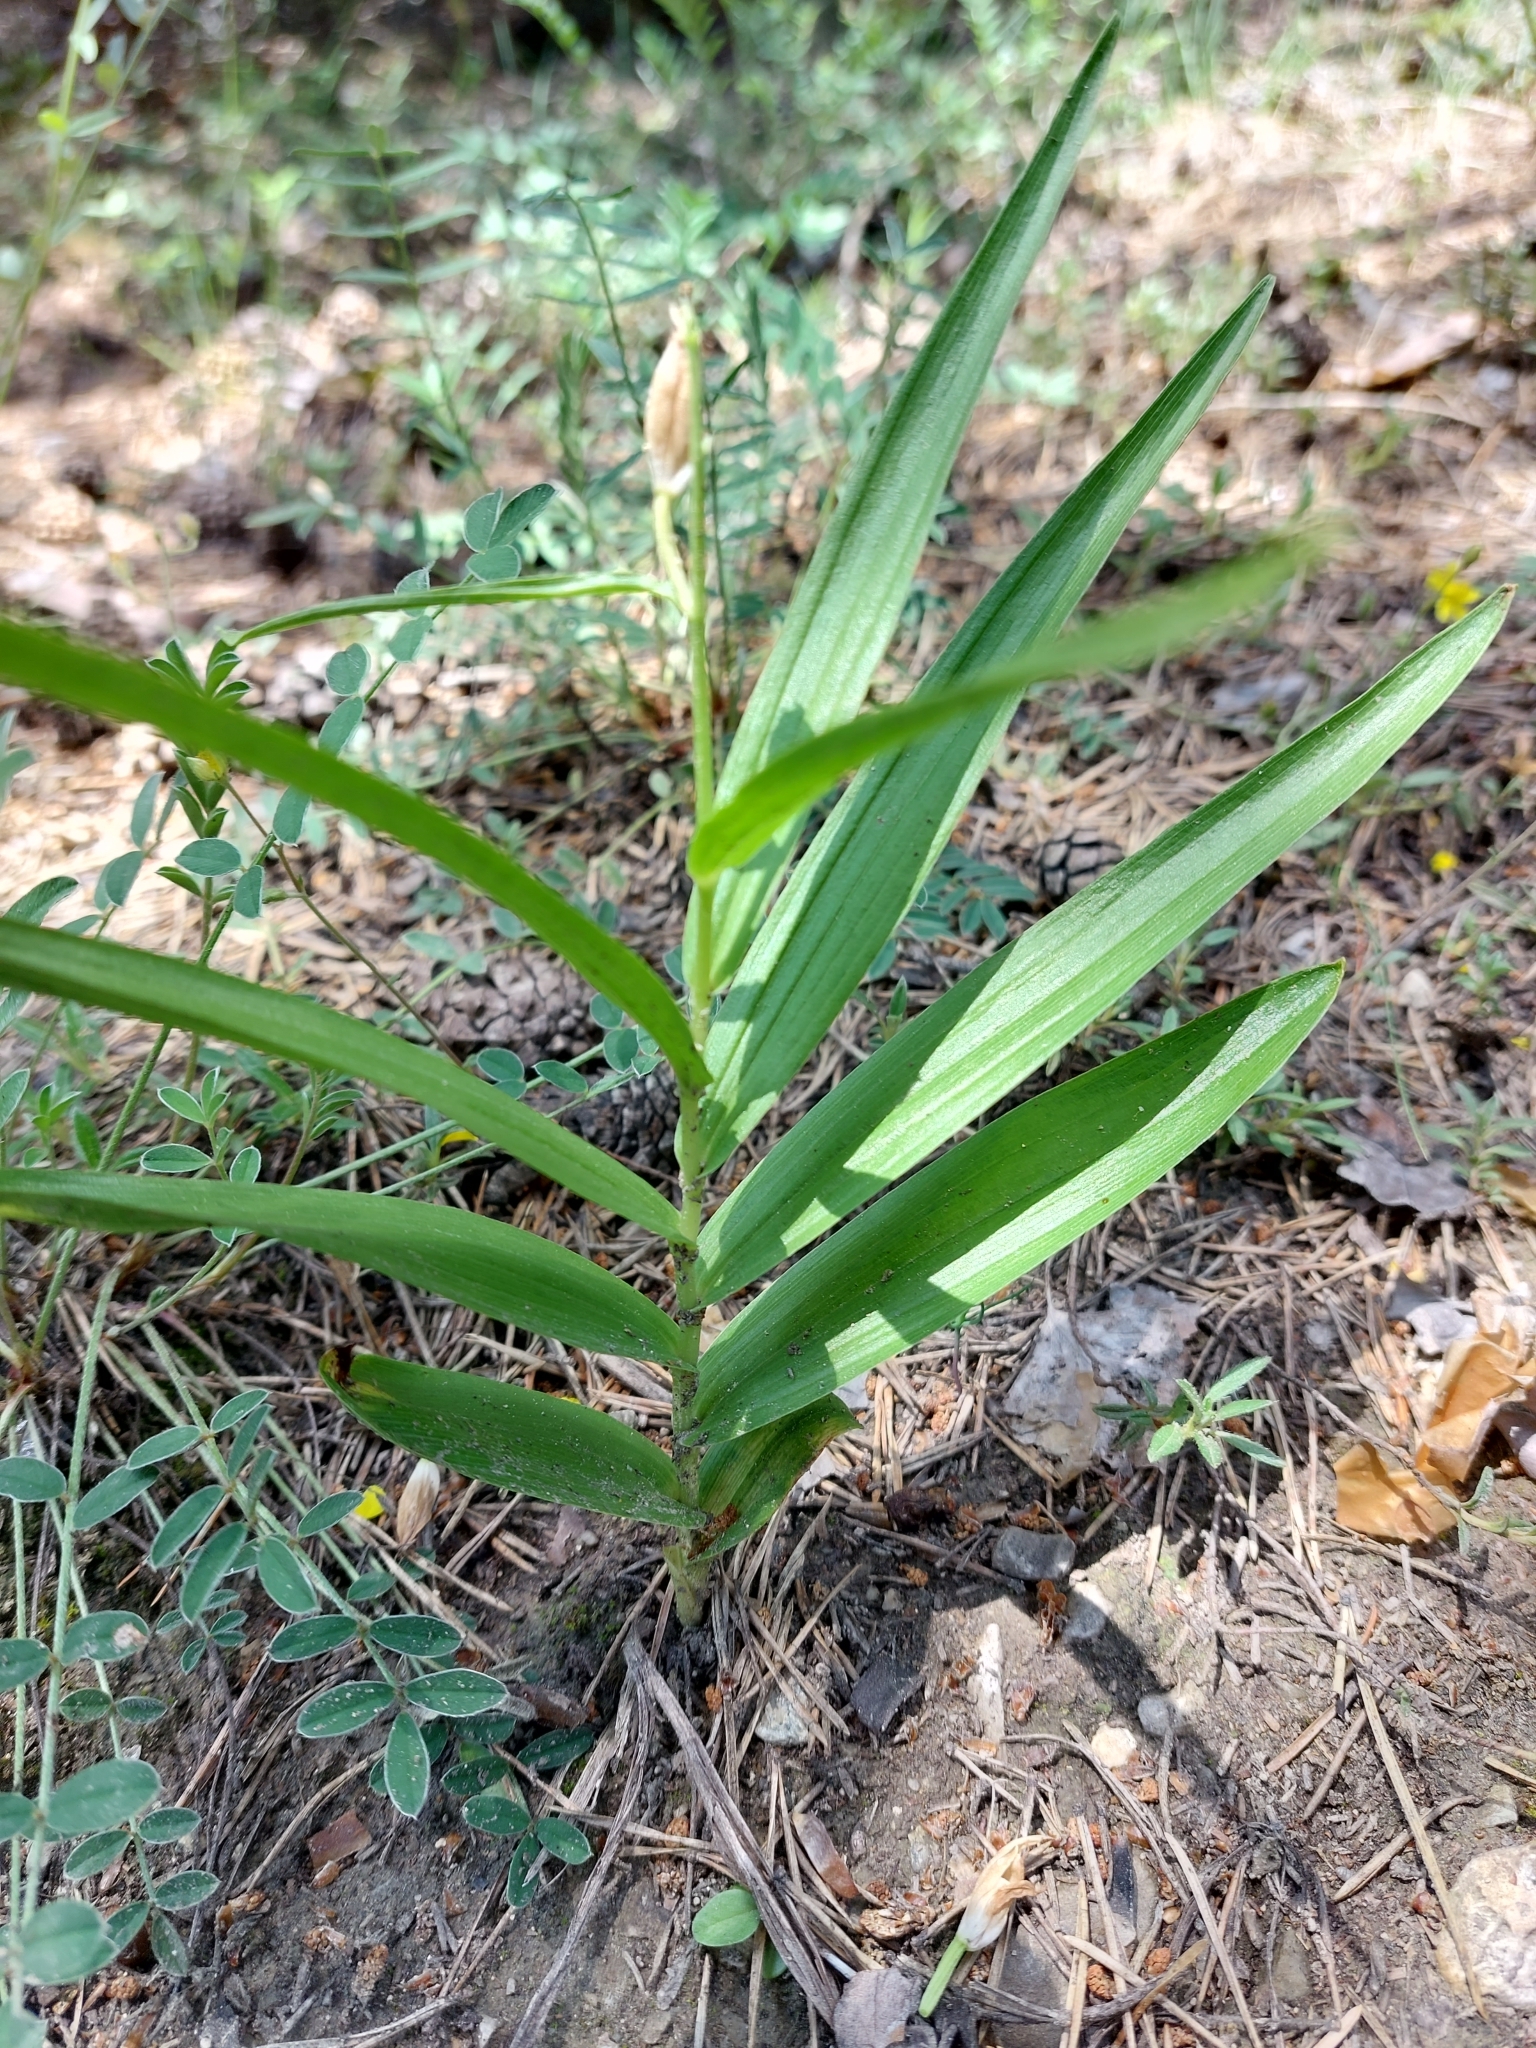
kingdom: Plantae
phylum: Tracheophyta
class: Liliopsida
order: Asparagales
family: Orchidaceae
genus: Cephalanthera
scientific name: Cephalanthera longifolia
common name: Narrow-leaved helleborine
